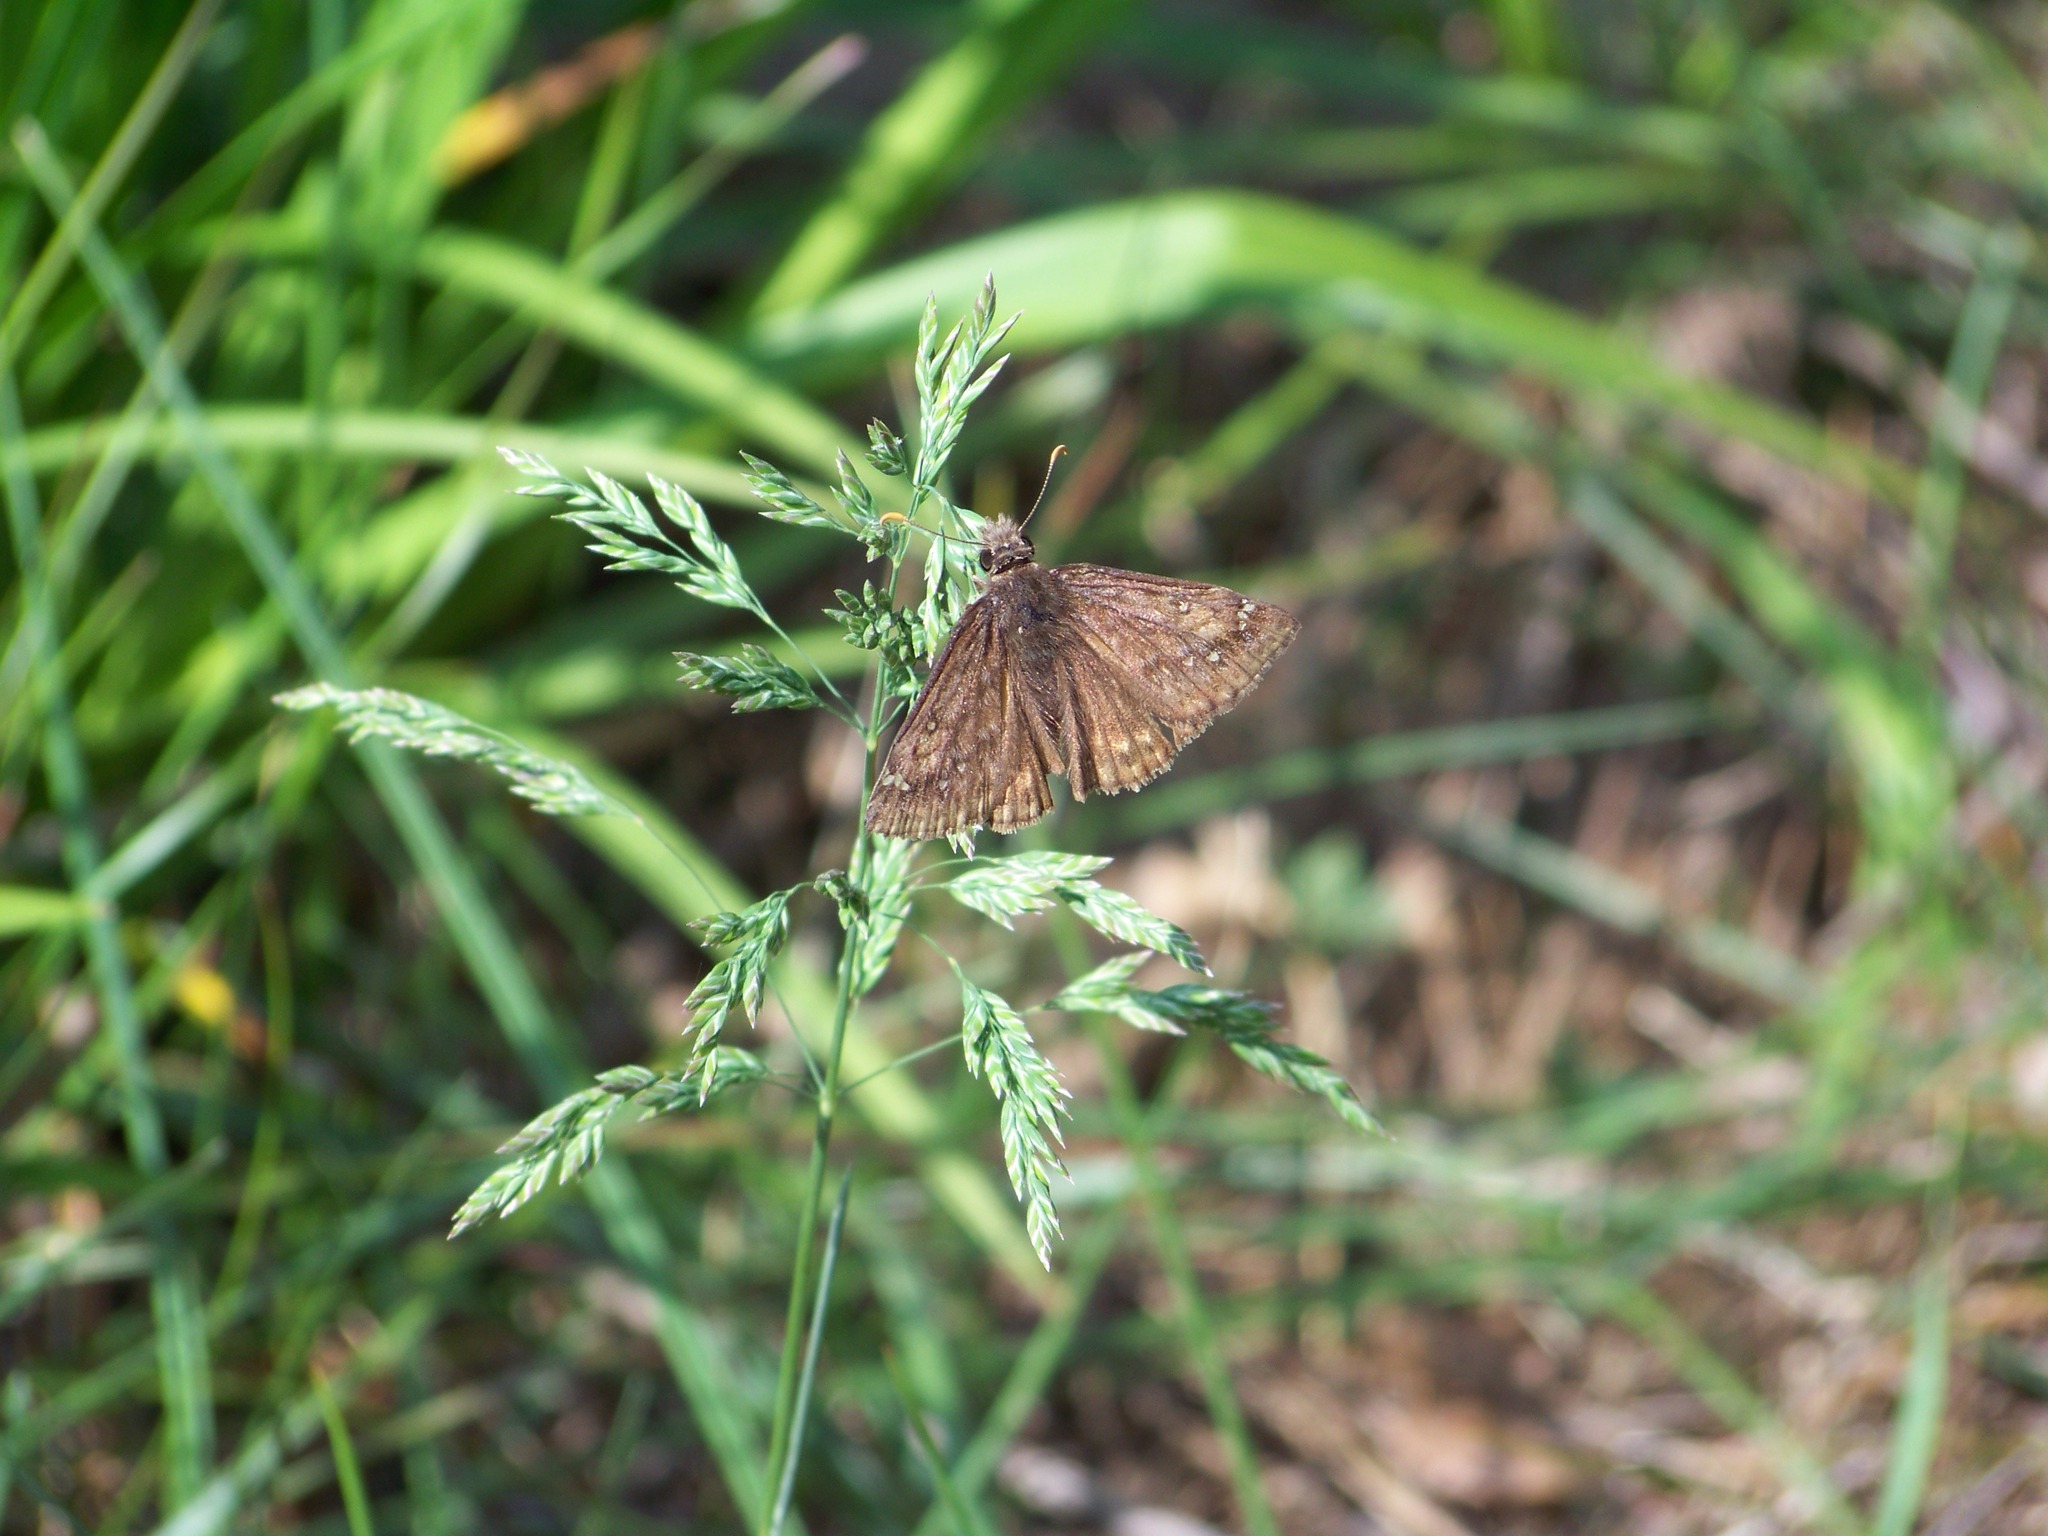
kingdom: Animalia
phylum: Arthropoda
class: Insecta
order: Lepidoptera
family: Hesperiidae
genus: Erynnis
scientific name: Erynnis
